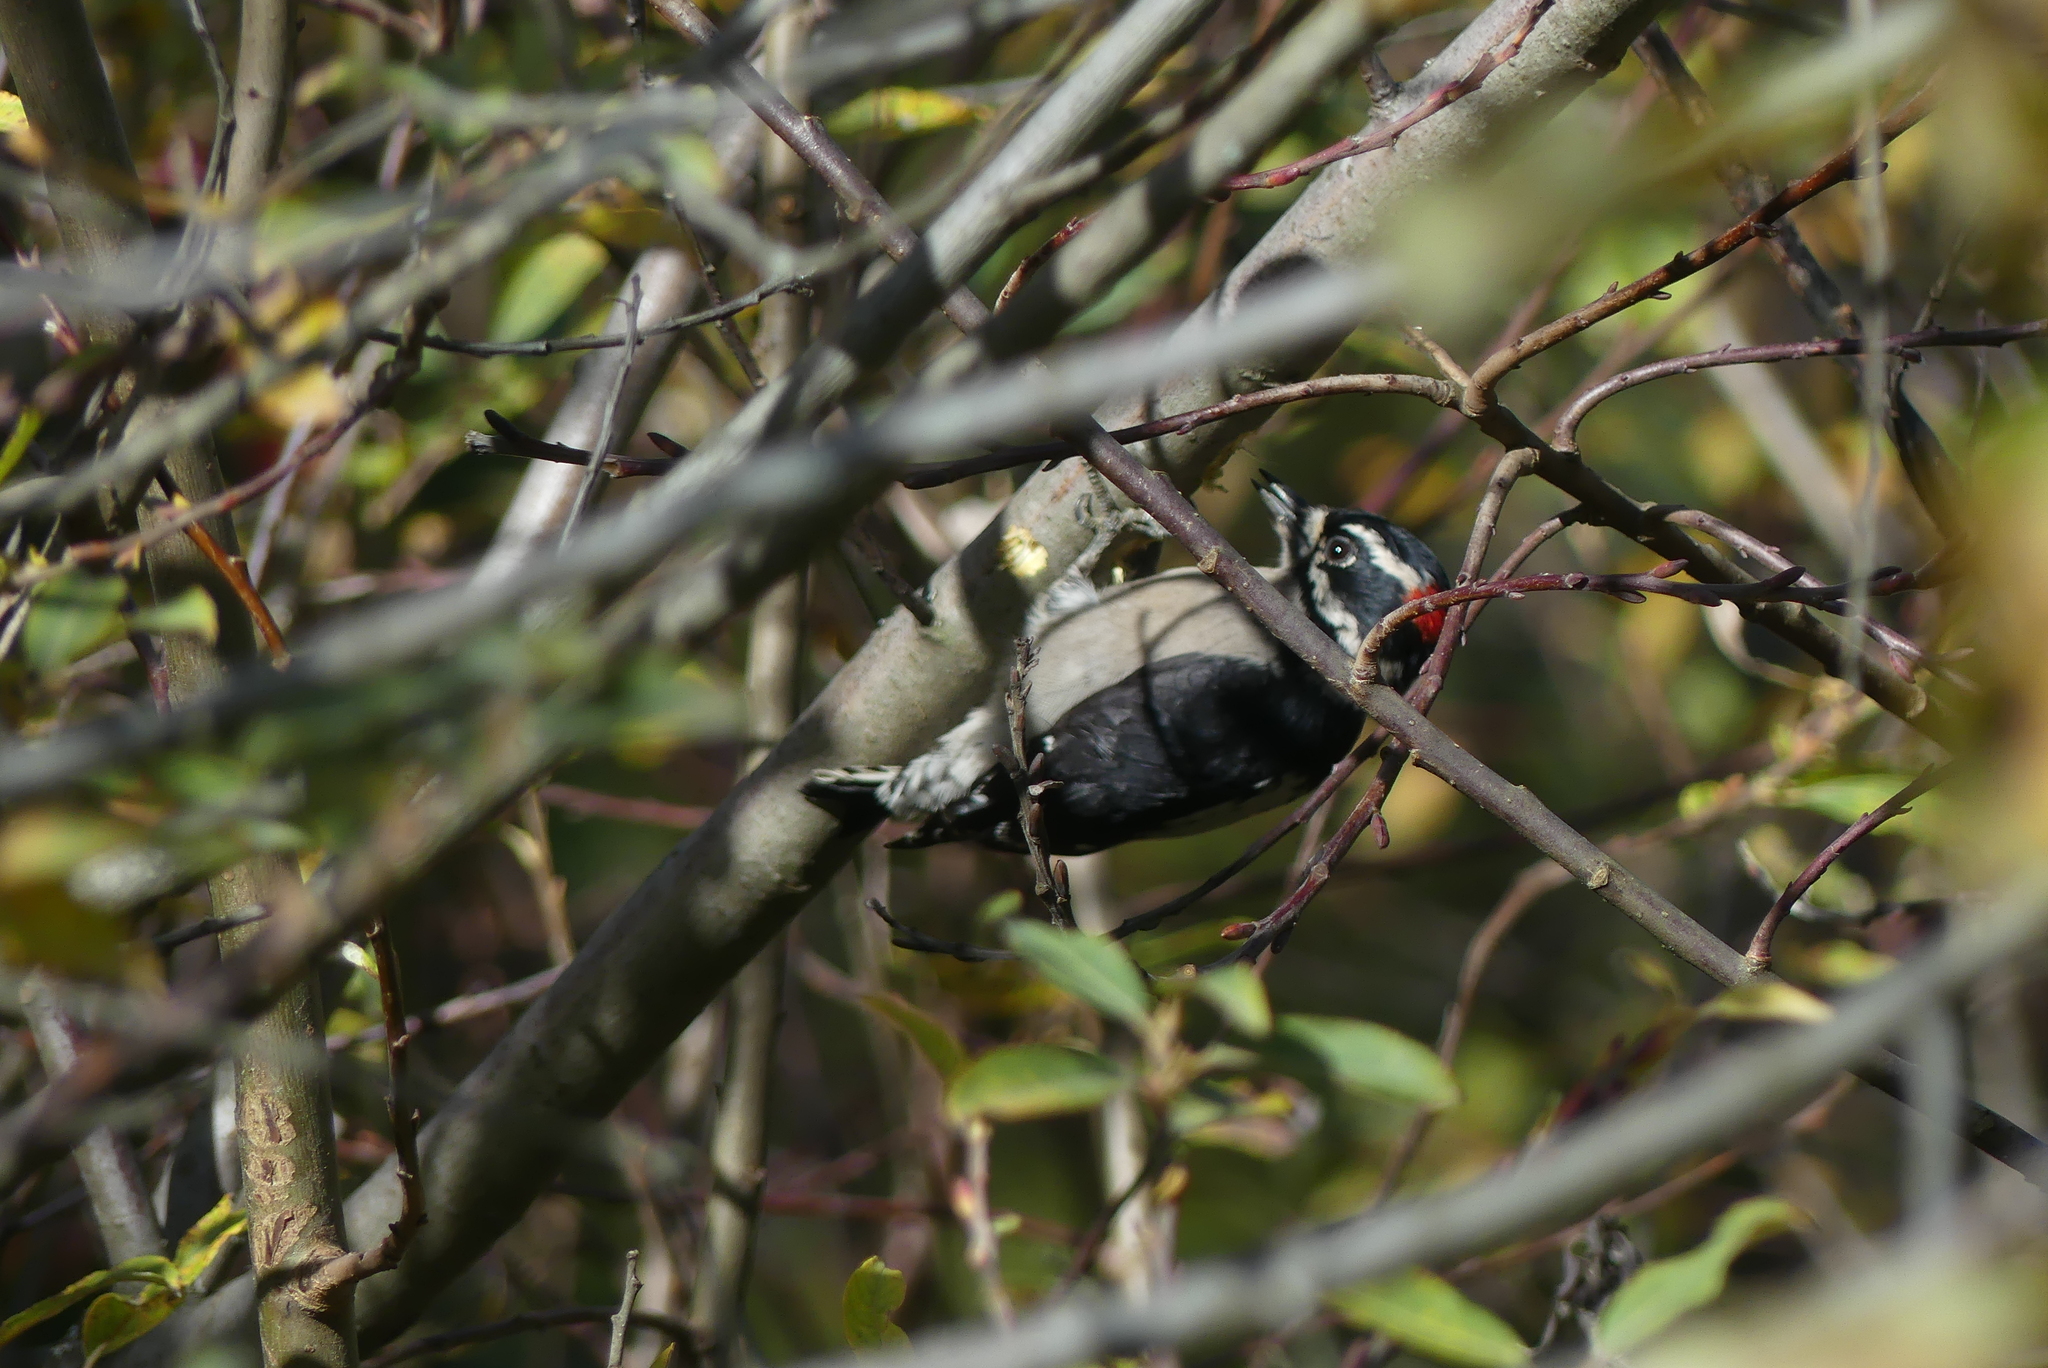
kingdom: Animalia
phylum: Chordata
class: Aves
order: Piciformes
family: Picidae
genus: Dryobates
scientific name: Dryobates pubescens
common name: Downy woodpecker
